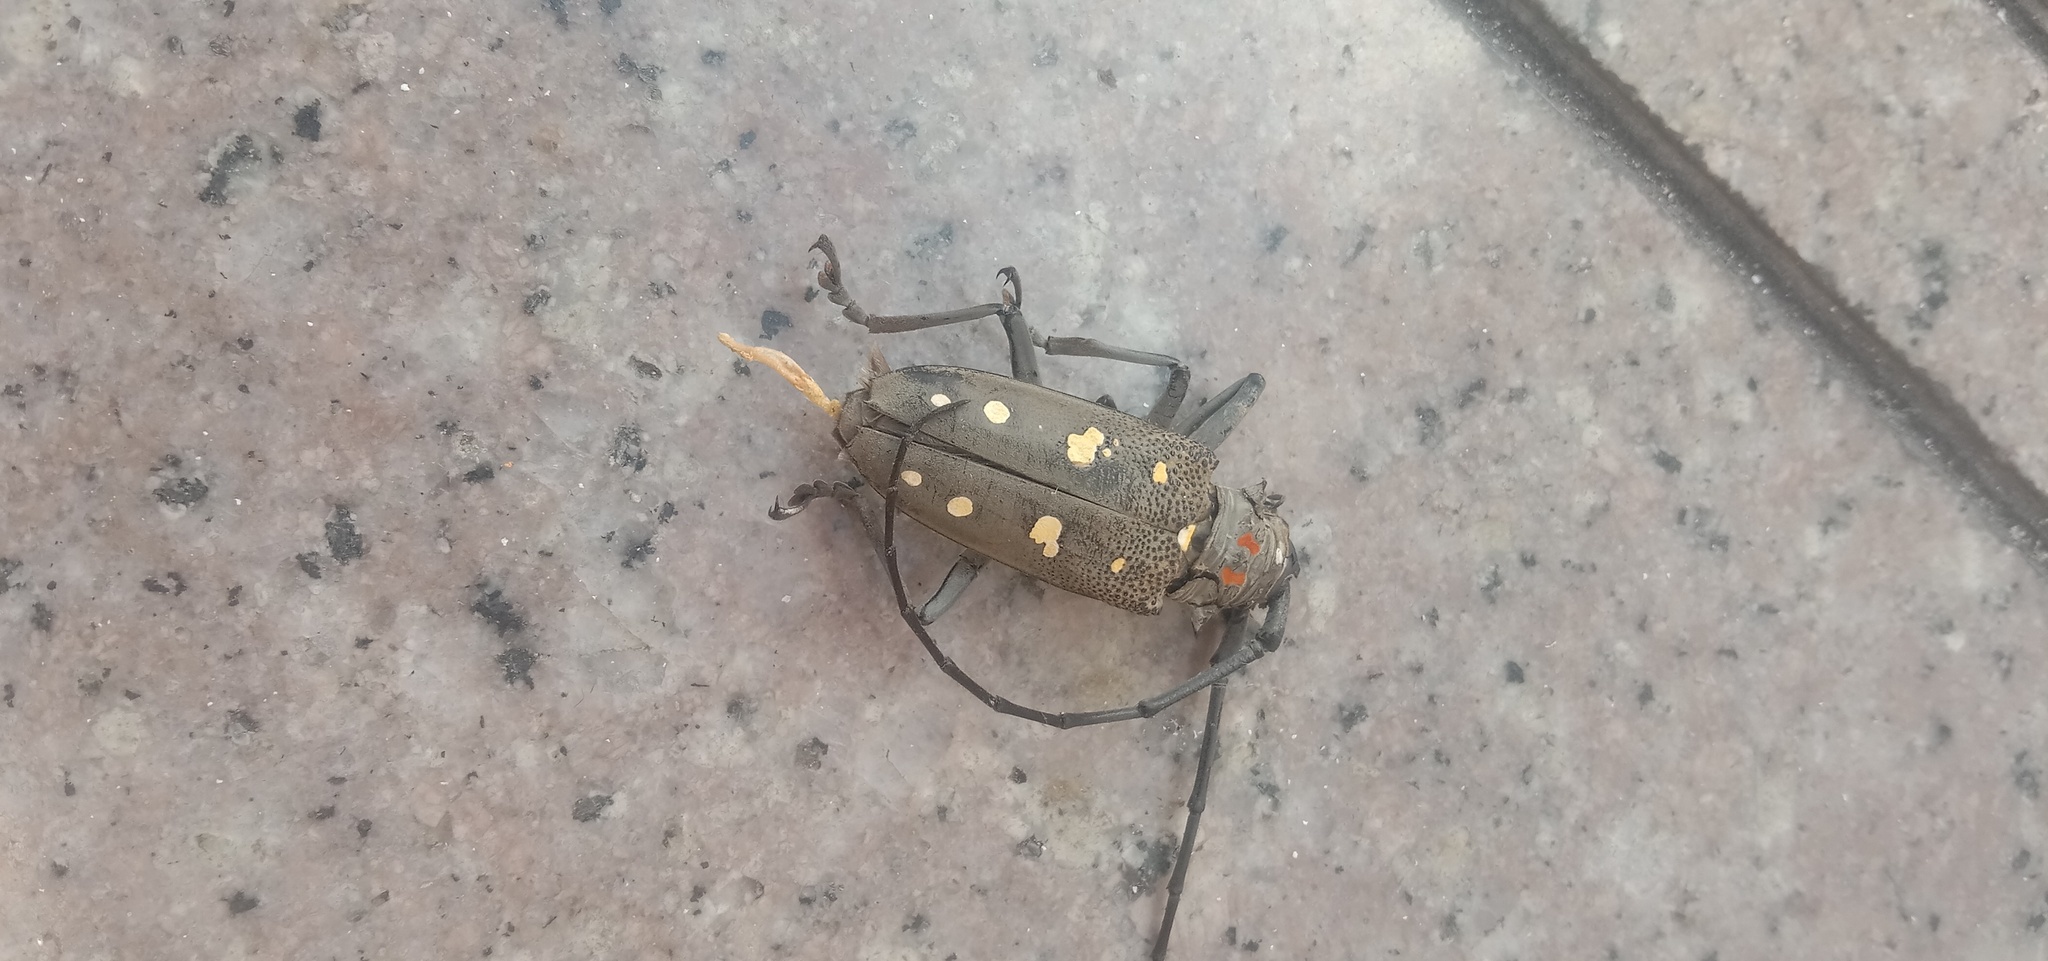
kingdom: Animalia
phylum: Arthropoda
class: Insecta
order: Coleoptera
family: Cerambycidae
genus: Batocera
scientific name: Batocera rubus
